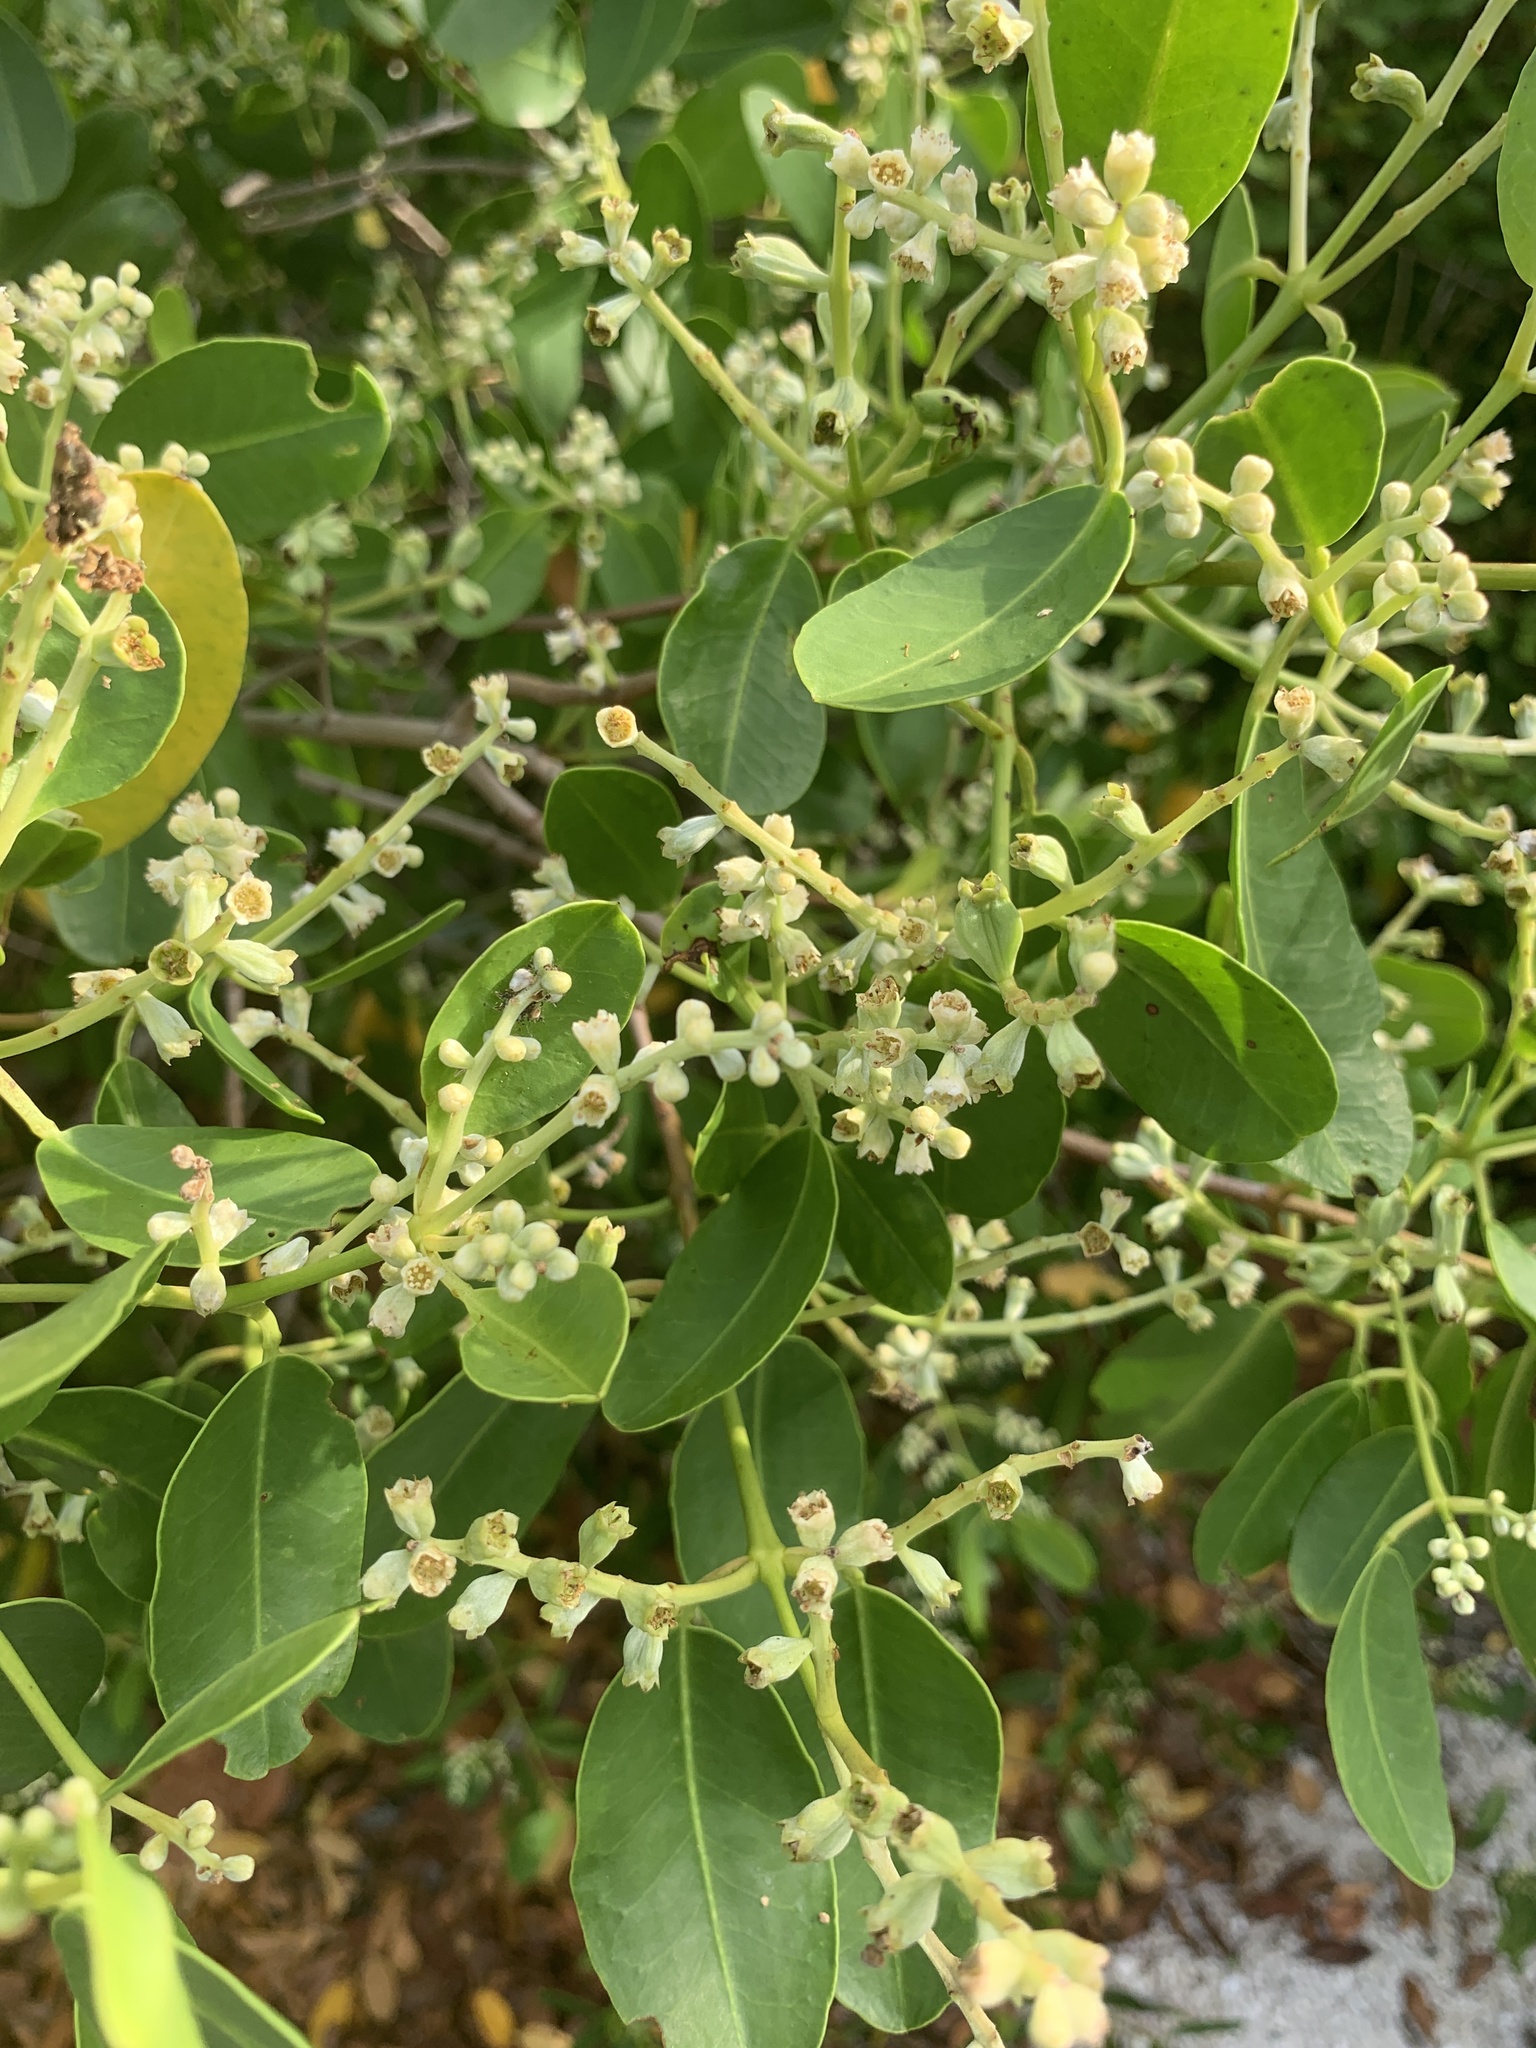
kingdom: Plantae
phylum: Tracheophyta
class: Magnoliopsida
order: Myrtales
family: Combretaceae
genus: Laguncularia
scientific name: Laguncularia racemosa
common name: White mangrove
